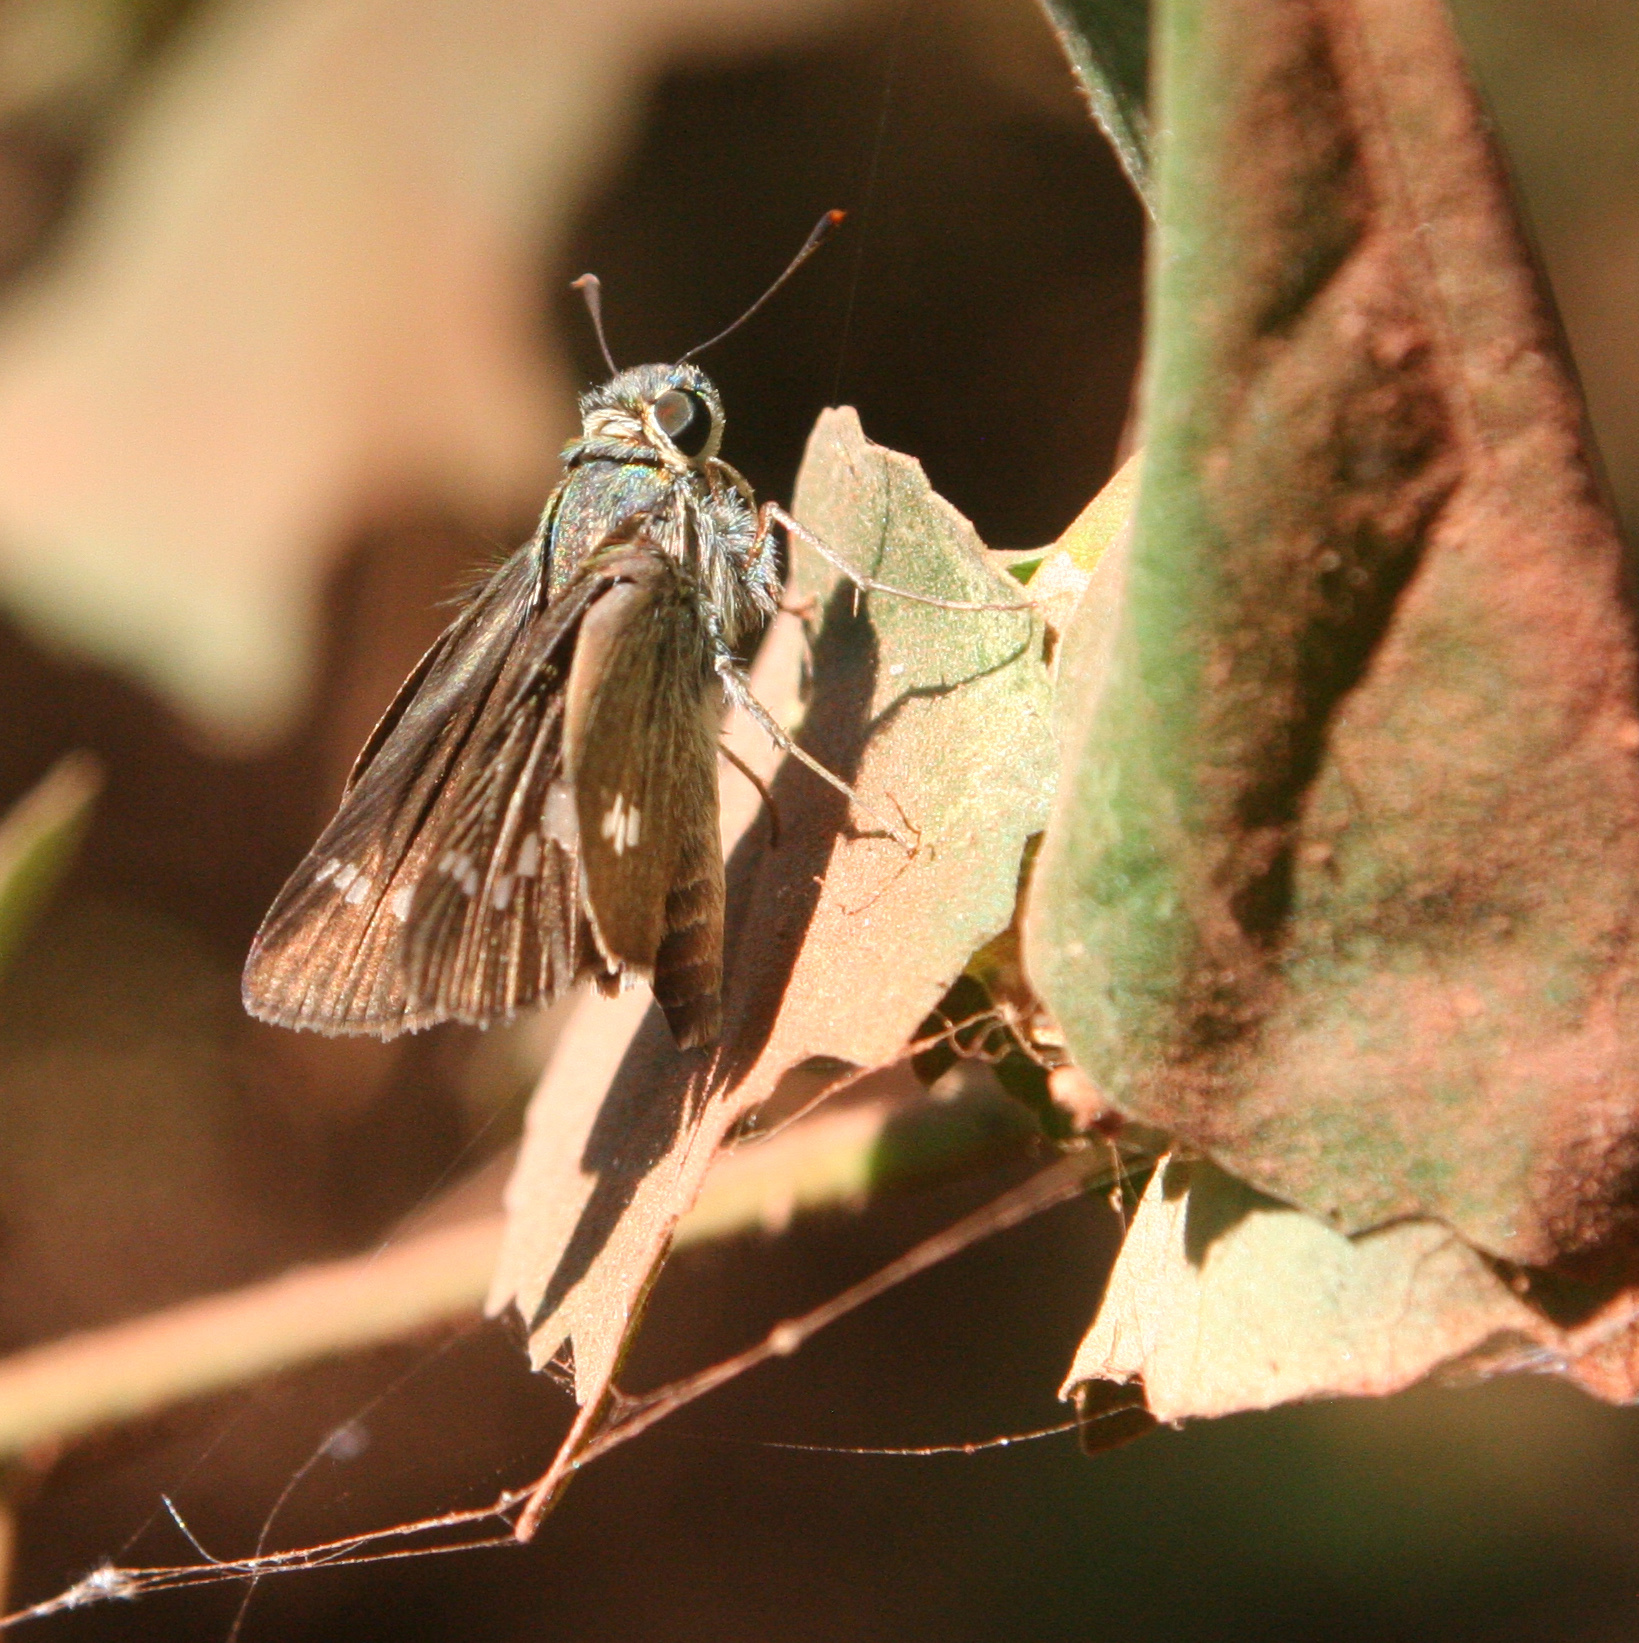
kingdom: Animalia
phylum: Arthropoda
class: Insecta
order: Lepidoptera
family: Hesperiidae
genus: Parnara
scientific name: Parnara ganga
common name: Continental swift
